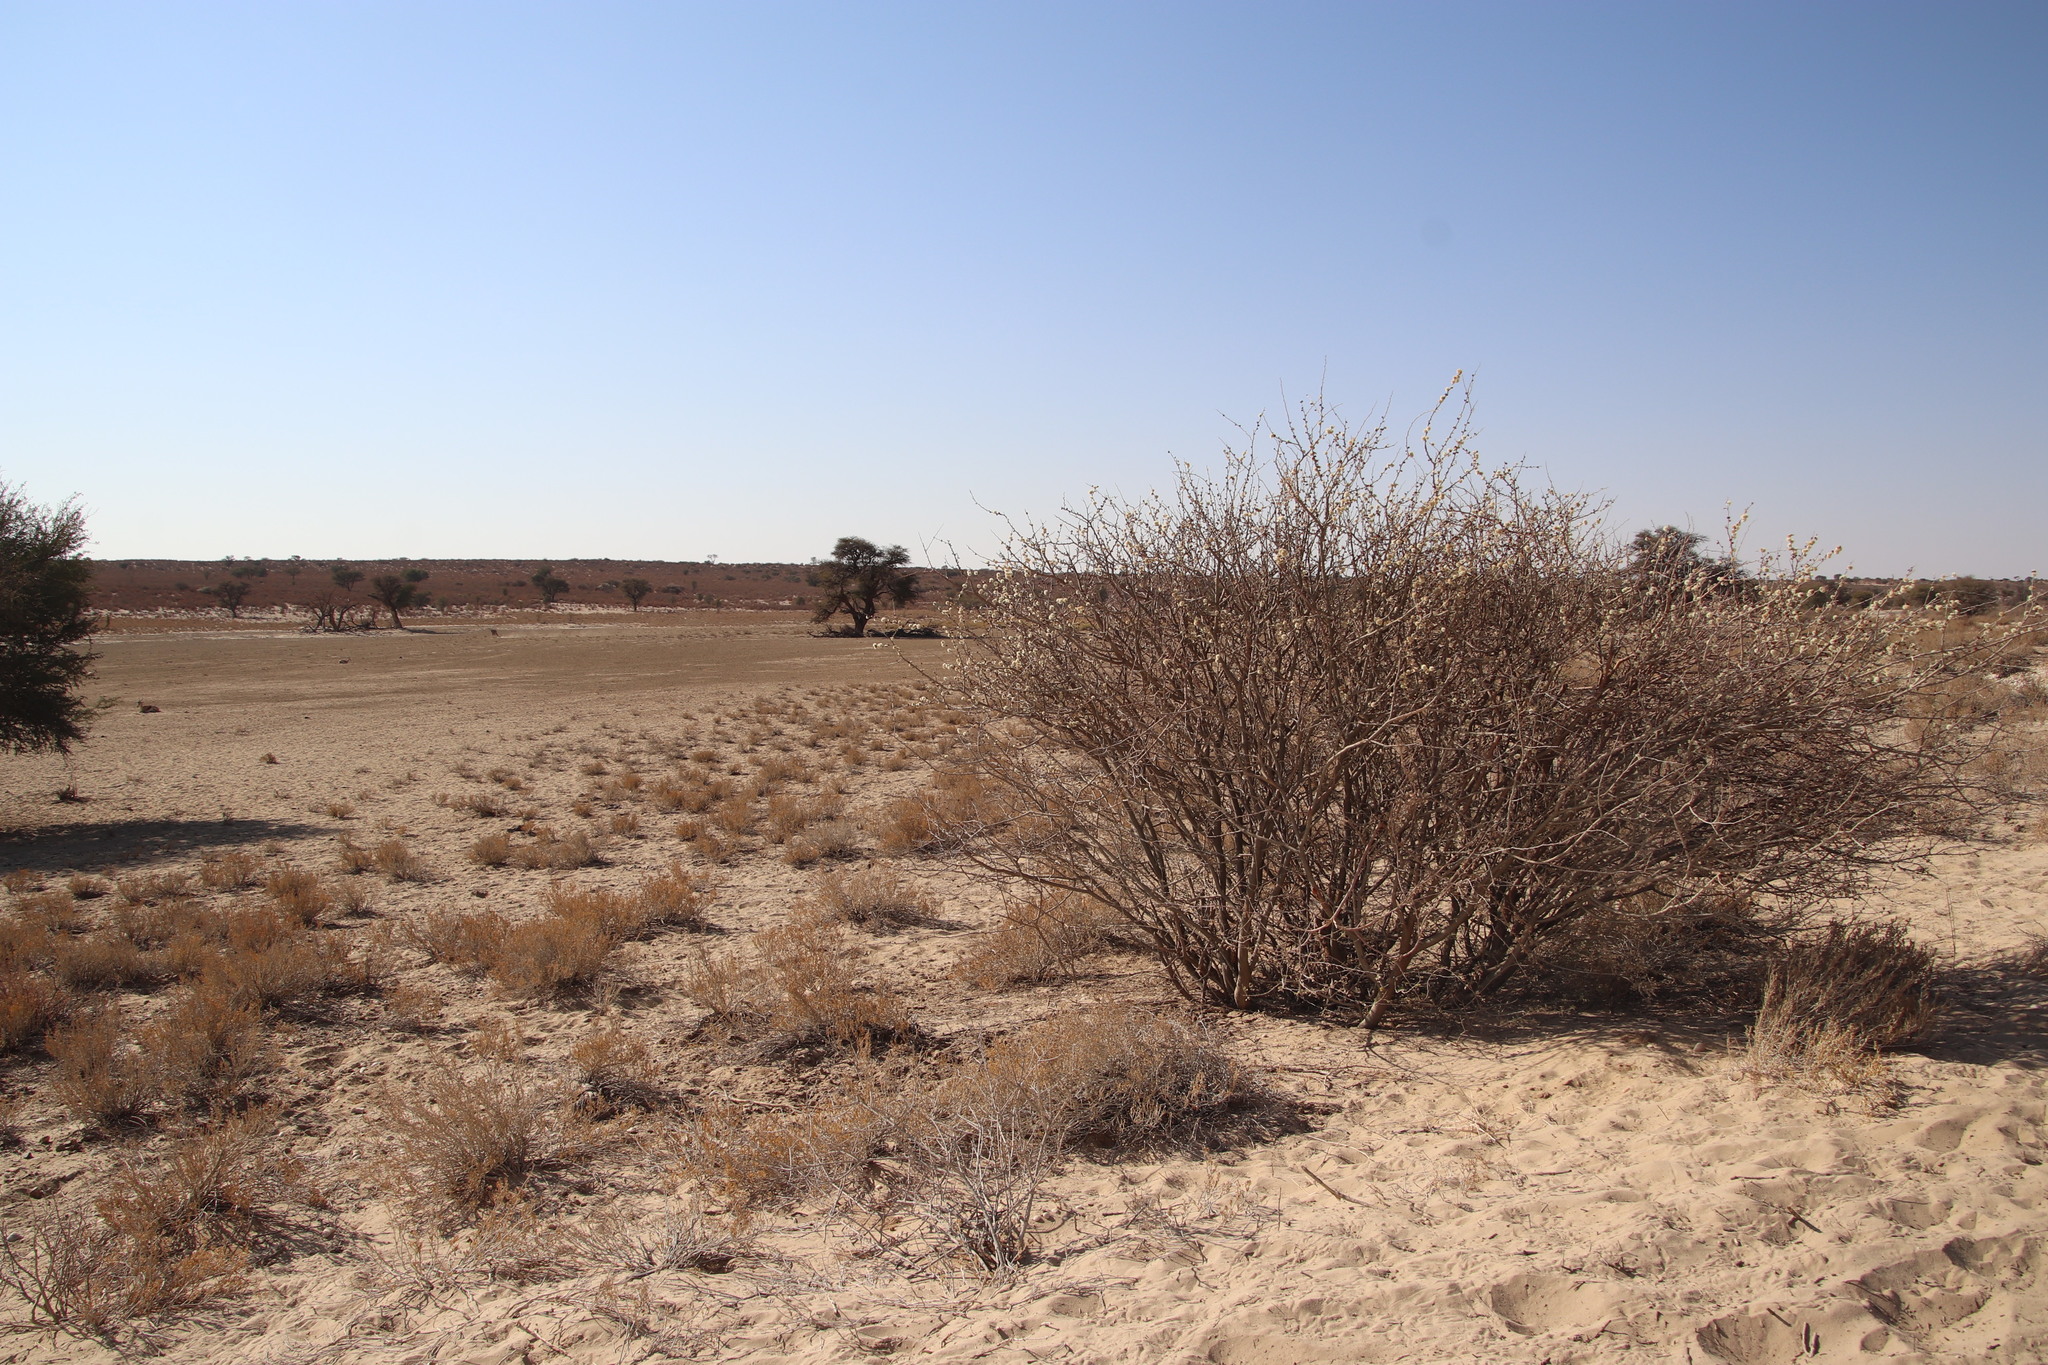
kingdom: Plantae
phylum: Tracheophyta
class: Magnoliopsida
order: Fabales
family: Fabaceae
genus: Senegalia
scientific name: Senegalia mellifera
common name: Hookthorn
